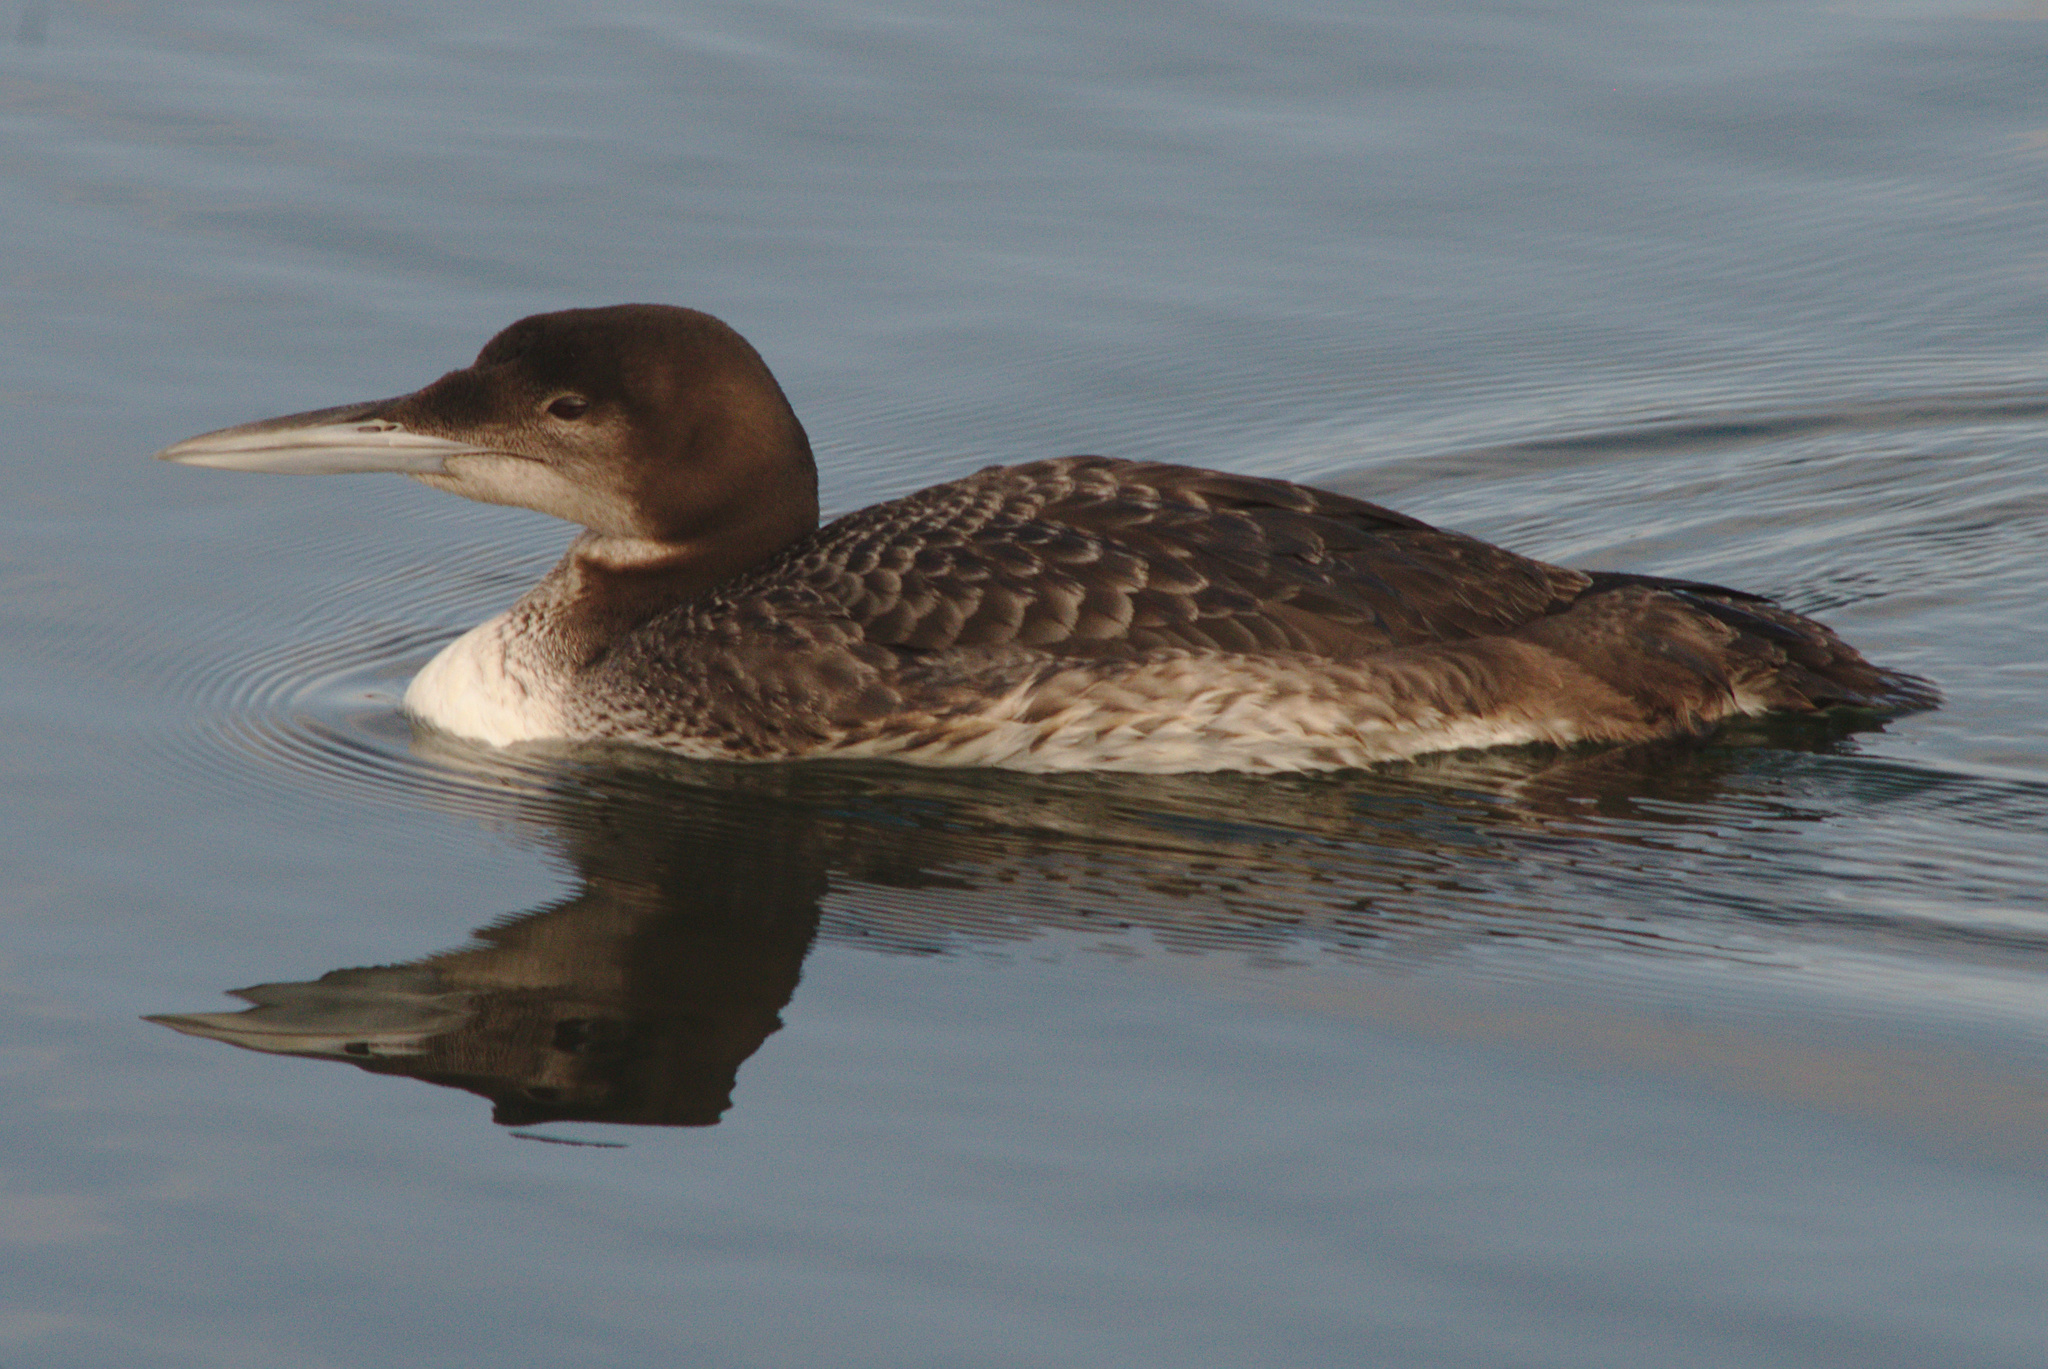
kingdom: Animalia
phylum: Chordata
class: Aves
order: Gaviiformes
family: Gaviidae
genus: Gavia
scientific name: Gavia immer
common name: Common loon
